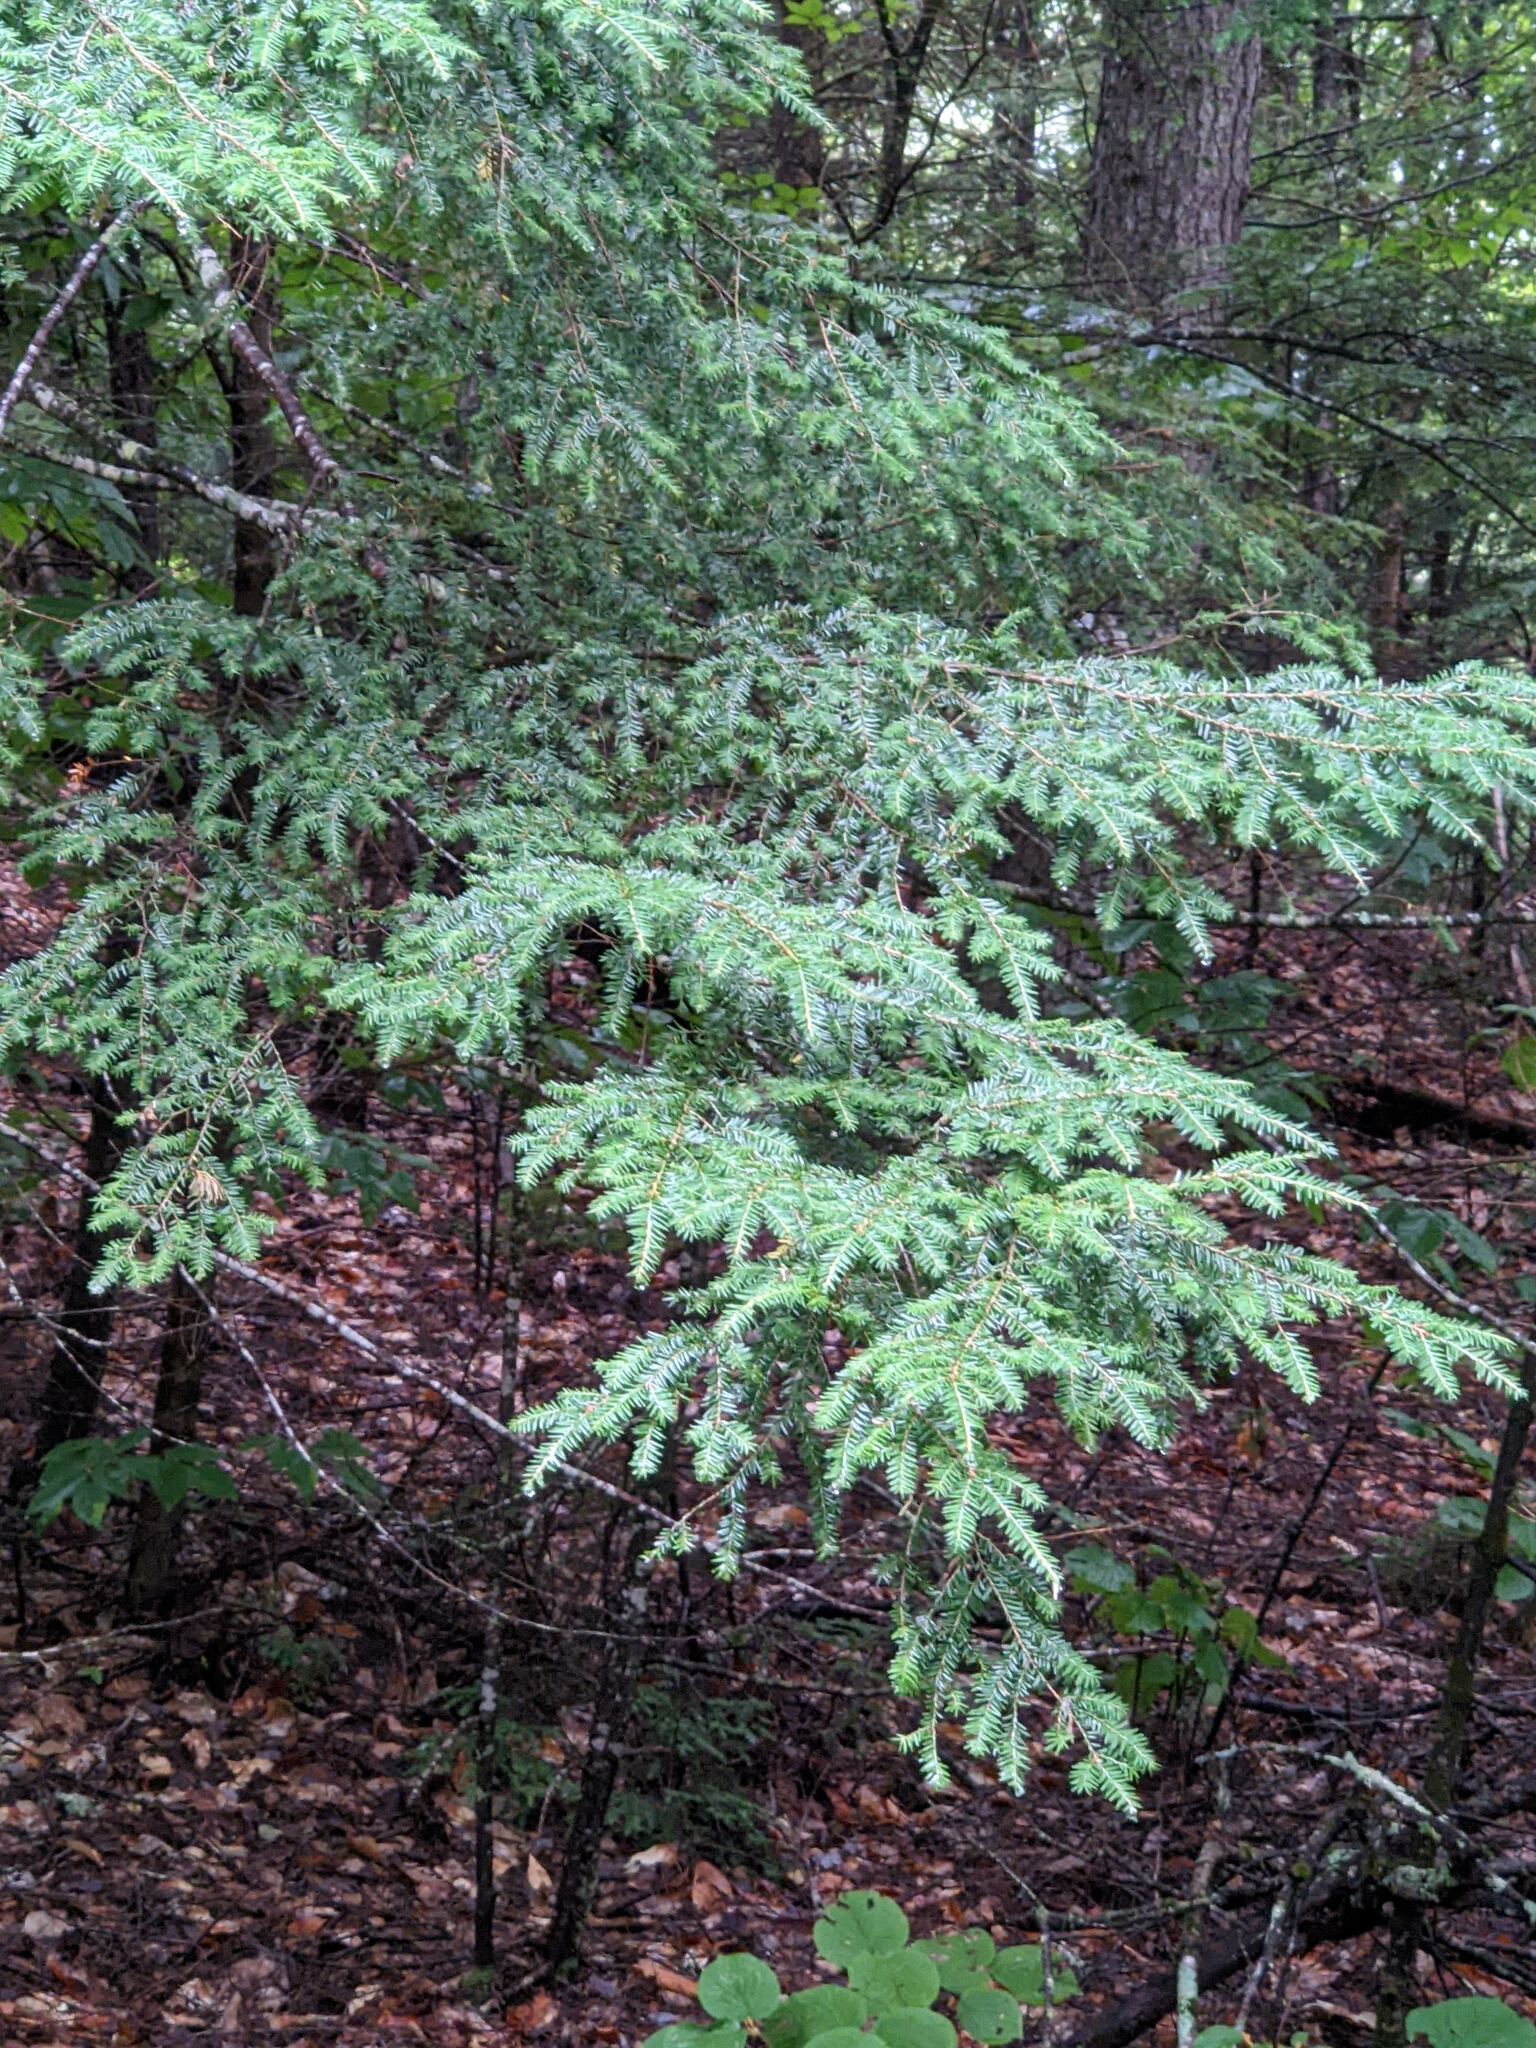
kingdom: Plantae
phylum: Tracheophyta
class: Pinopsida
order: Pinales
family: Pinaceae
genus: Tsuga
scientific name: Tsuga canadensis
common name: Eastern hemlock
